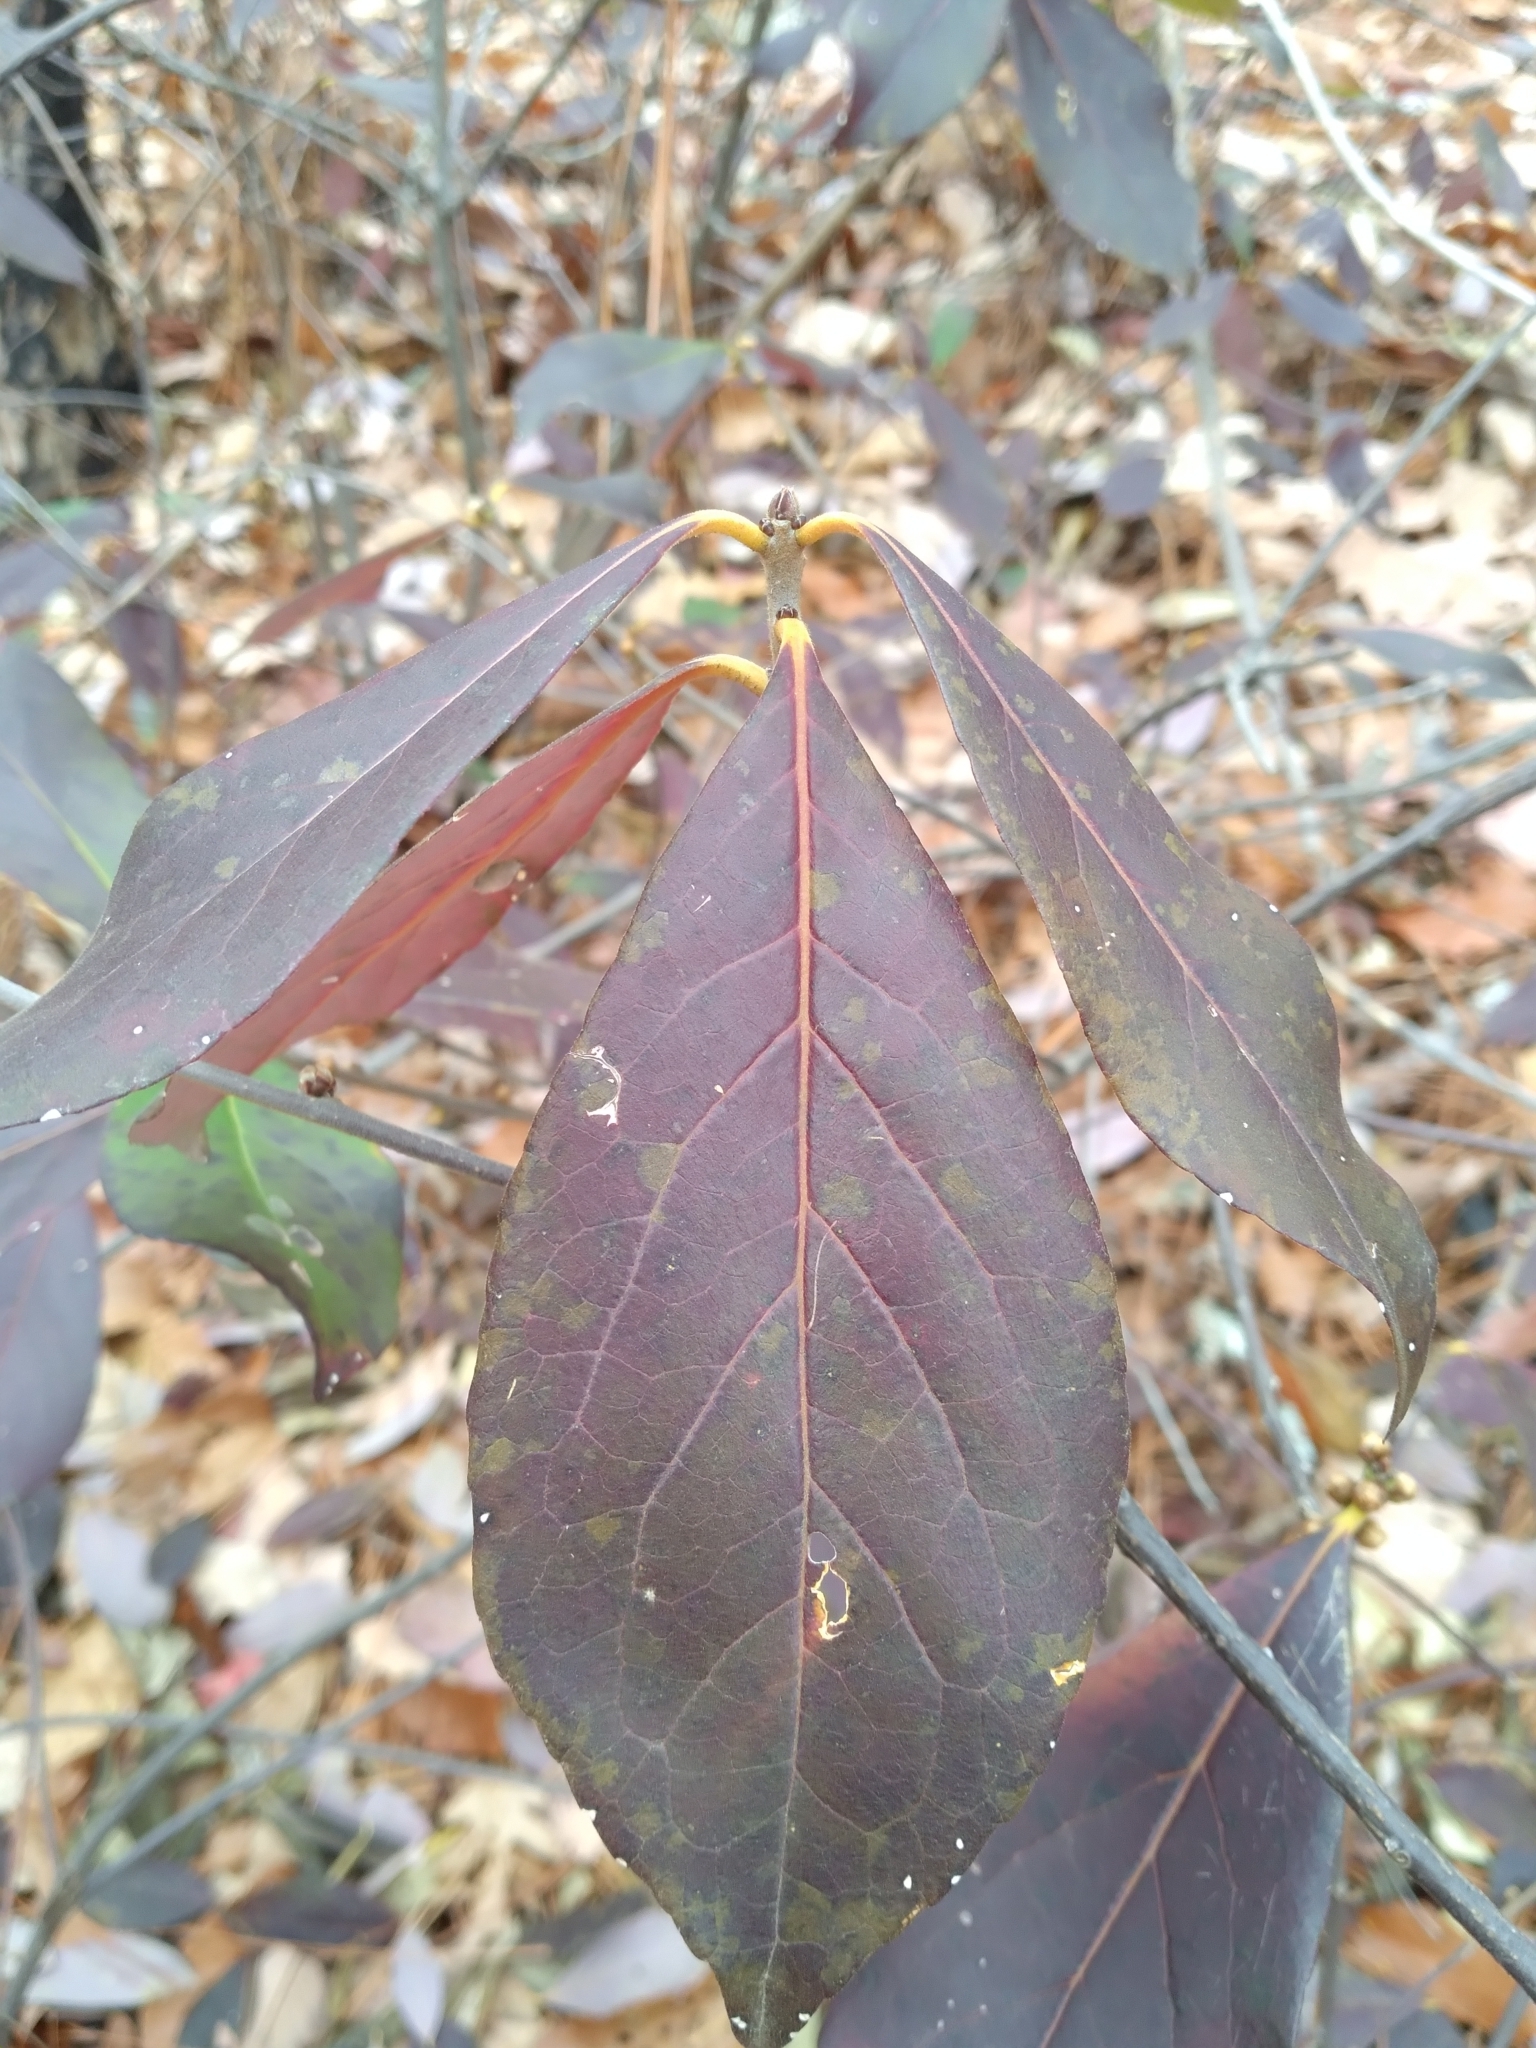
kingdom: Plantae
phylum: Tracheophyta
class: Magnoliopsida
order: Ericales
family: Symplocaceae
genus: Symplocos
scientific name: Symplocos tinctoria
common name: Horse-sugar
